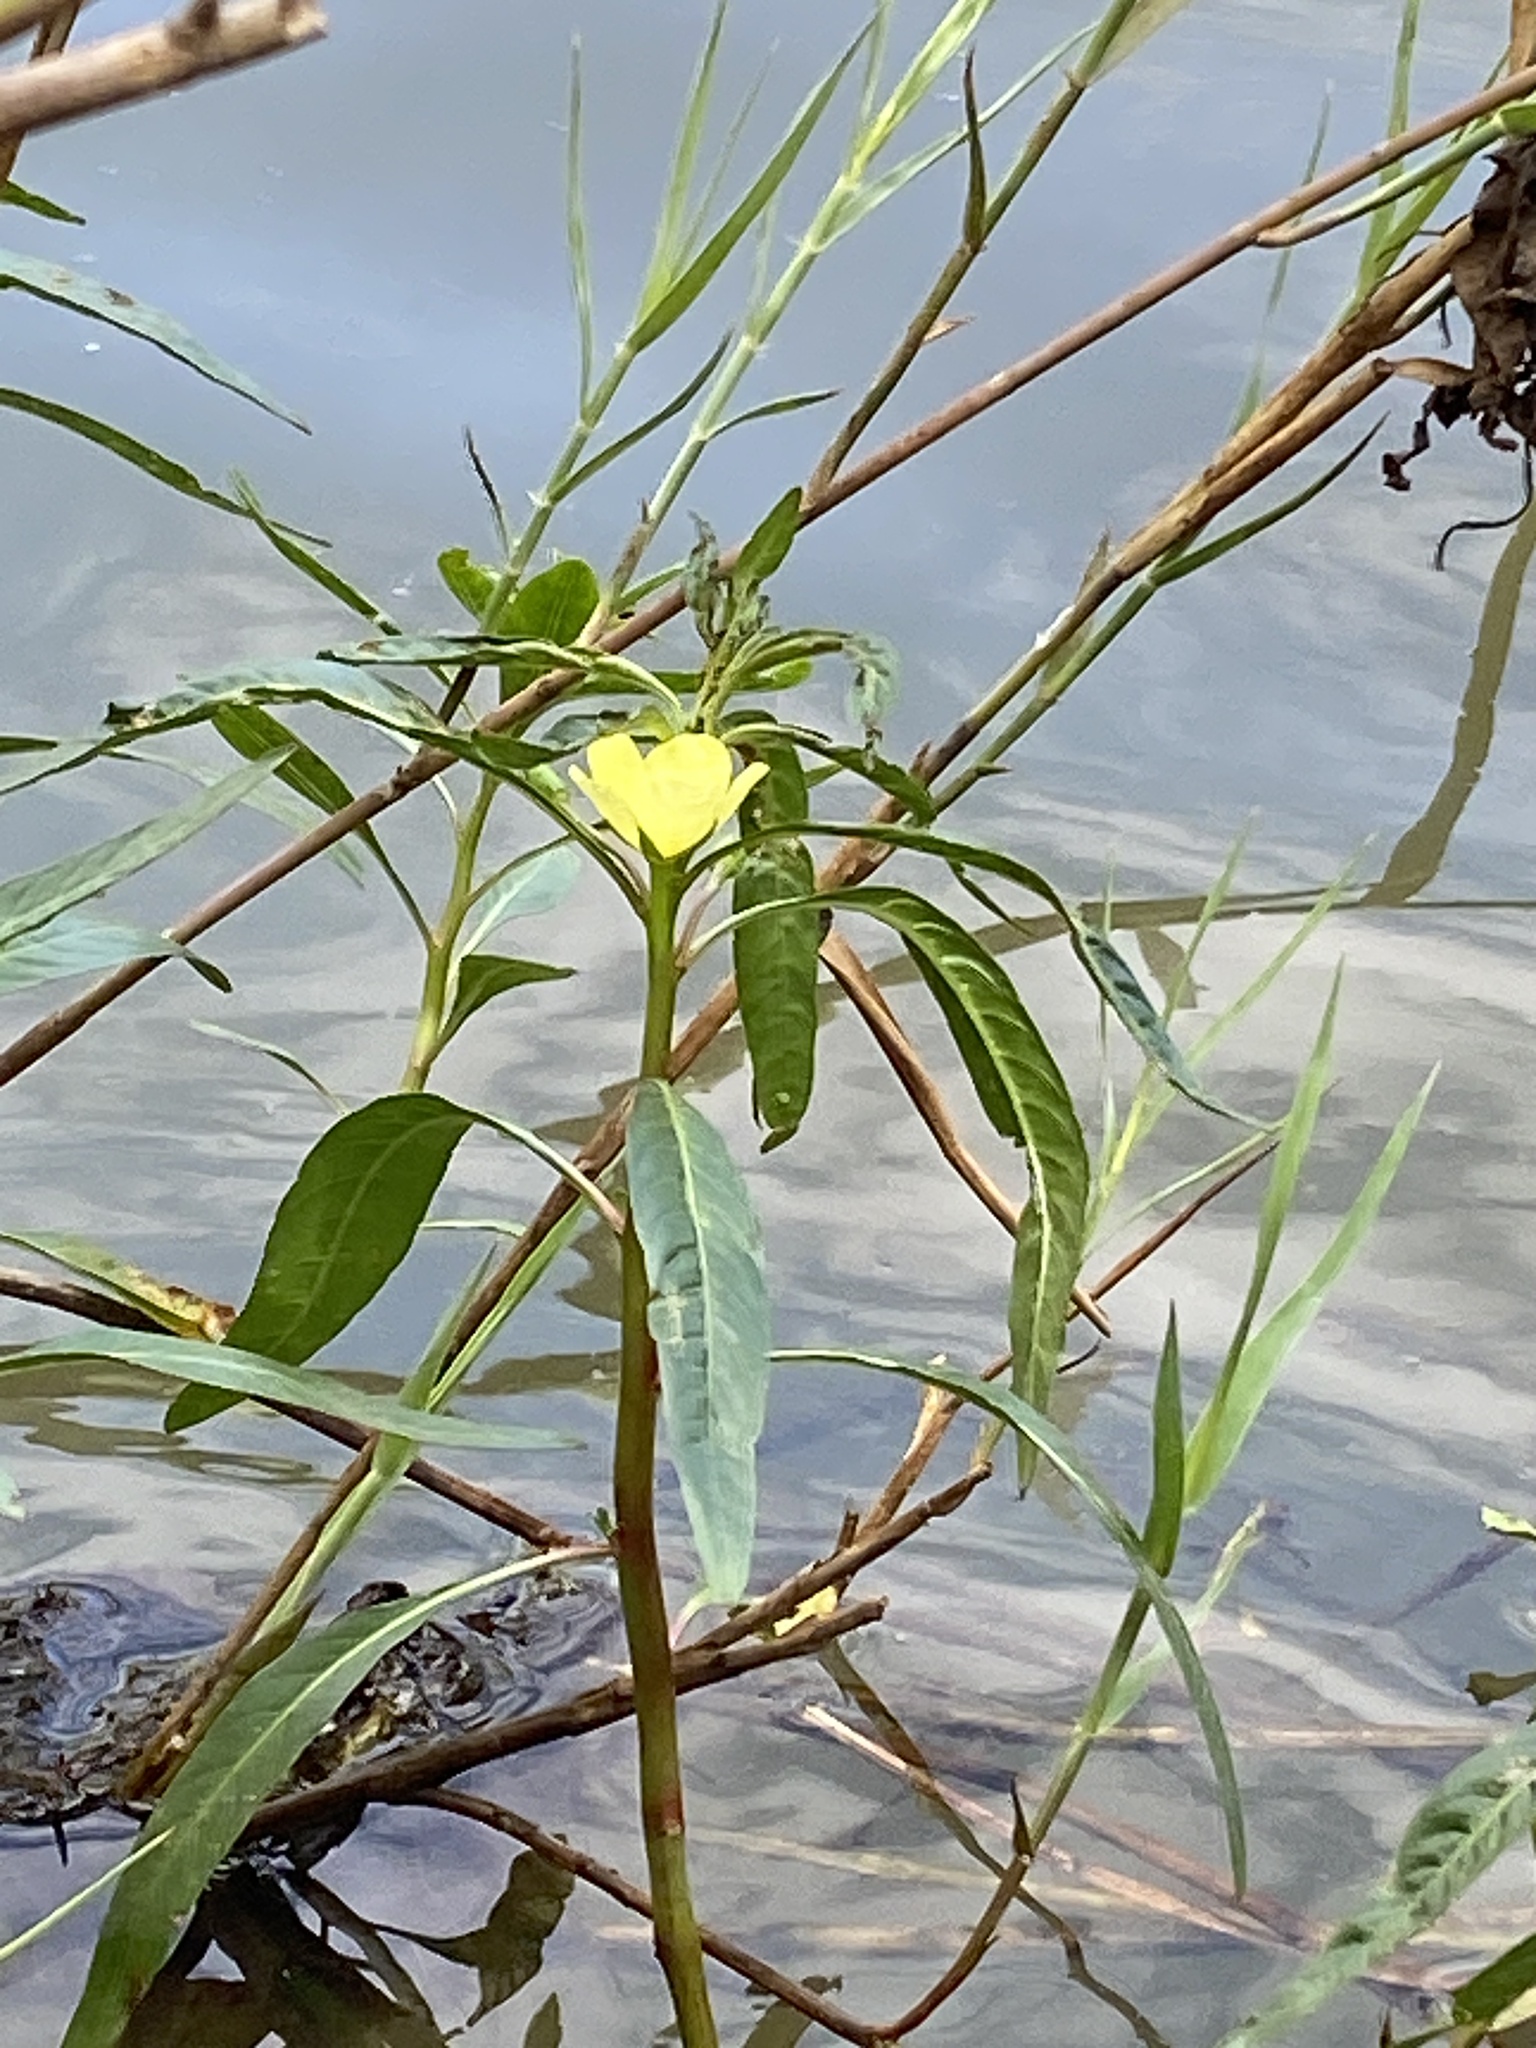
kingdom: Plantae
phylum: Tracheophyta
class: Magnoliopsida
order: Myrtales
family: Onagraceae
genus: Ludwigia
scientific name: Ludwigia octovalvis
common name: Water-primrose
